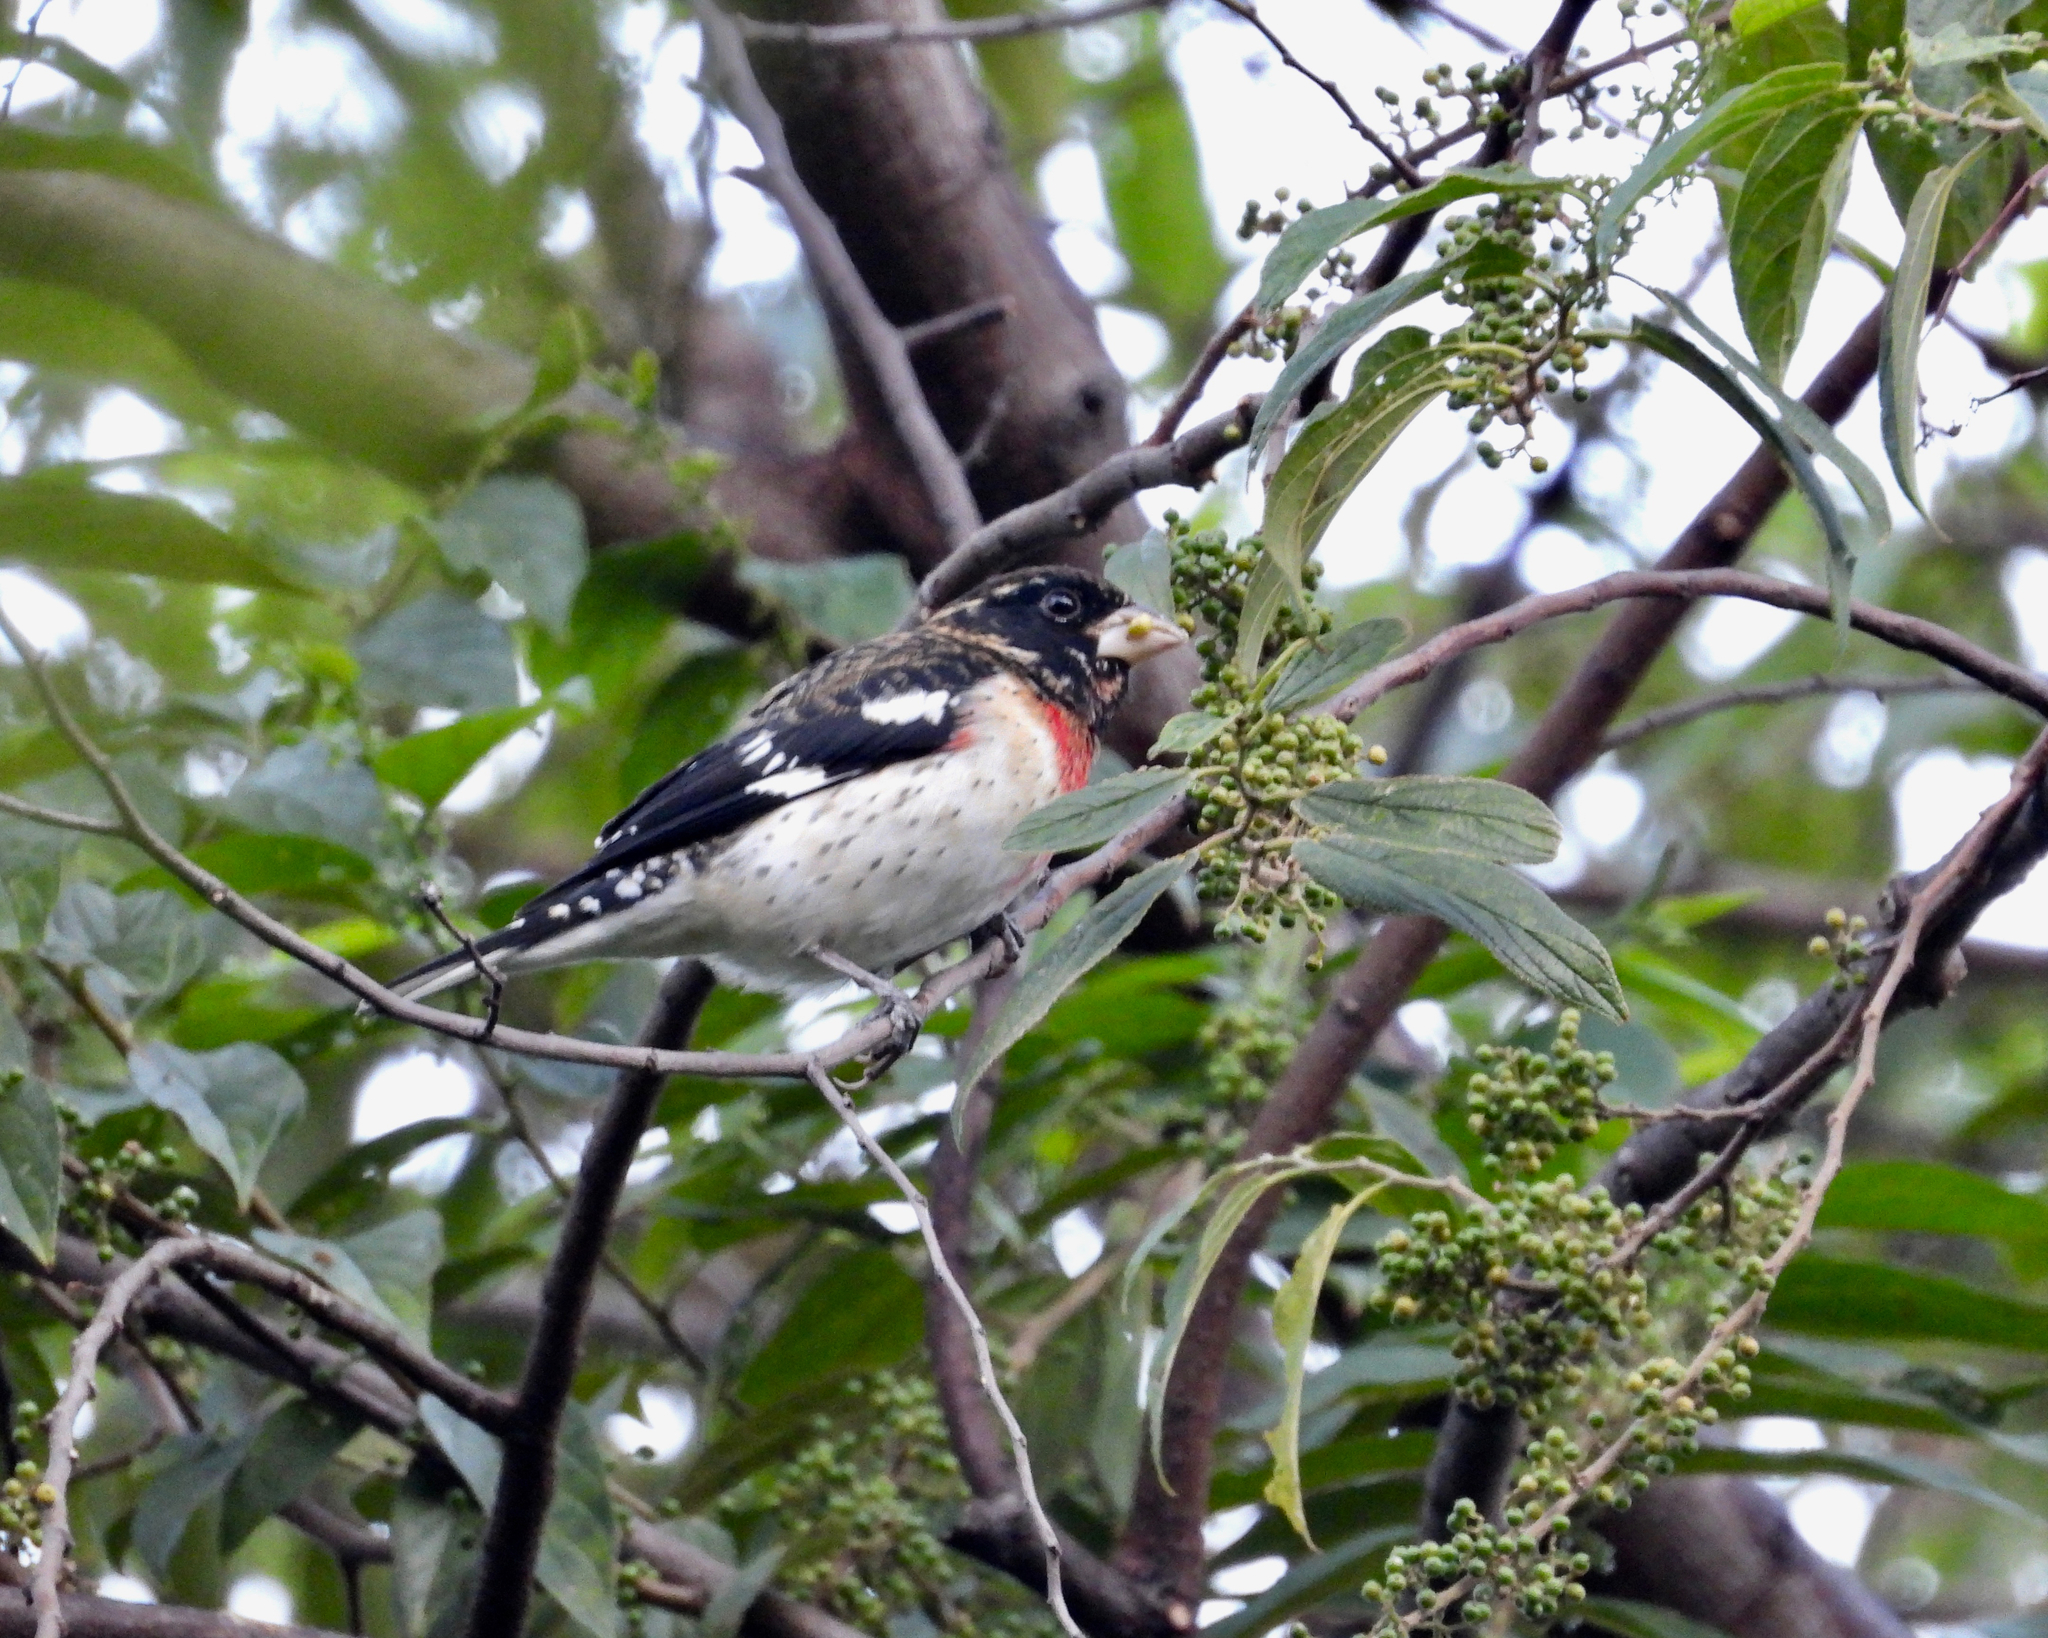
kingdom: Animalia
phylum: Chordata
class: Aves
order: Passeriformes
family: Cardinalidae
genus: Pheucticus
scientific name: Pheucticus ludovicianus
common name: Rose-breasted grosbeak
